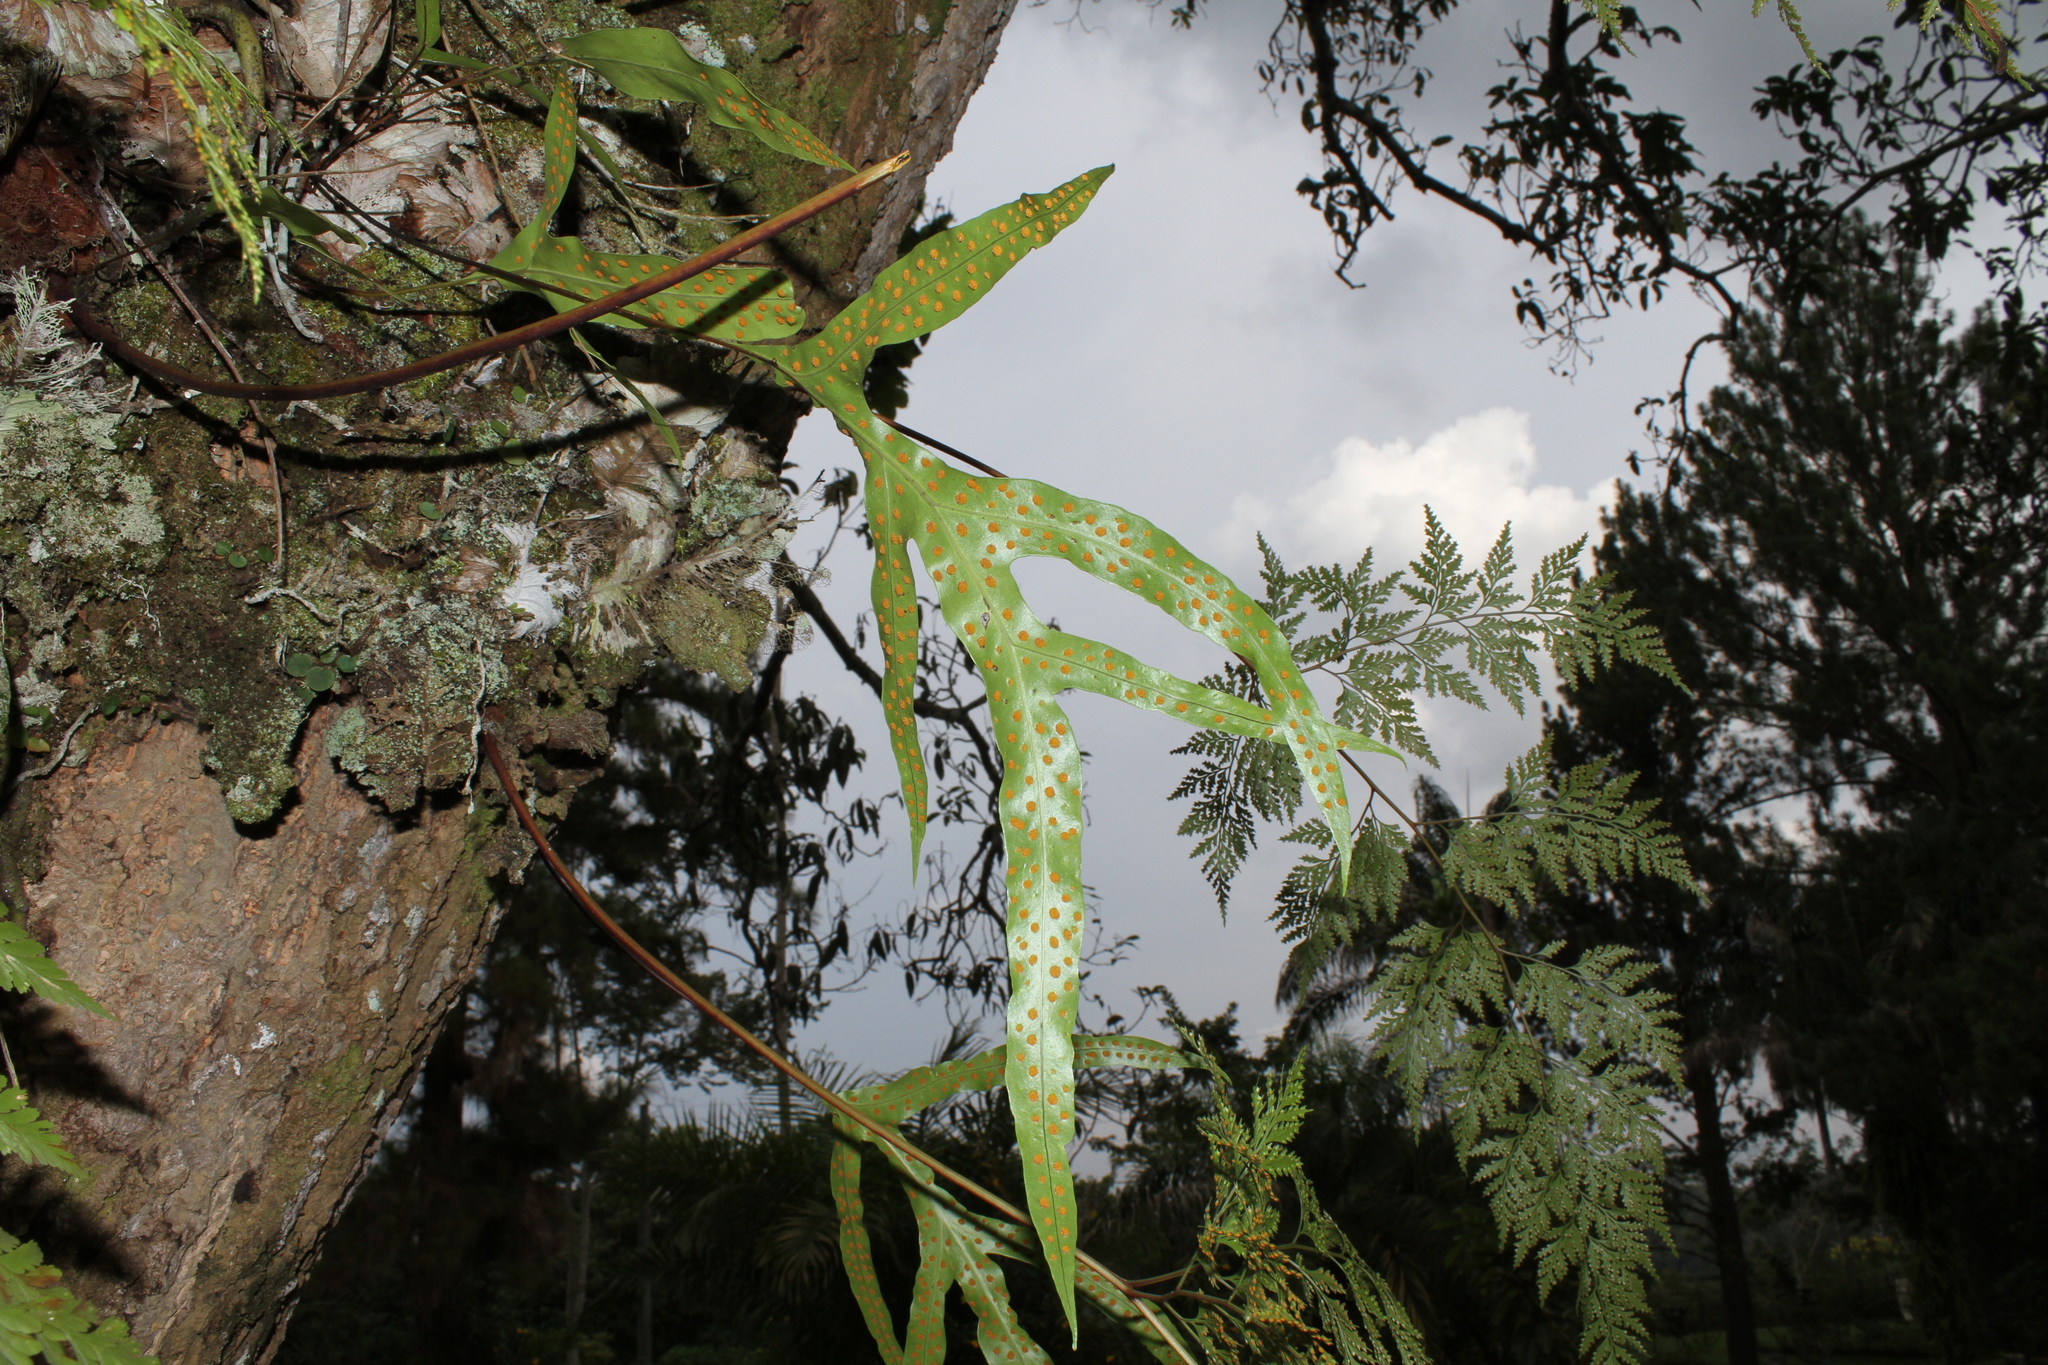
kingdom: Plantae
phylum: Tracheophyta
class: Polypodiopsida
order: Polypodiales
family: Polypodiaceae
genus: Microsorum
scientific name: Microsorum scolopendria
